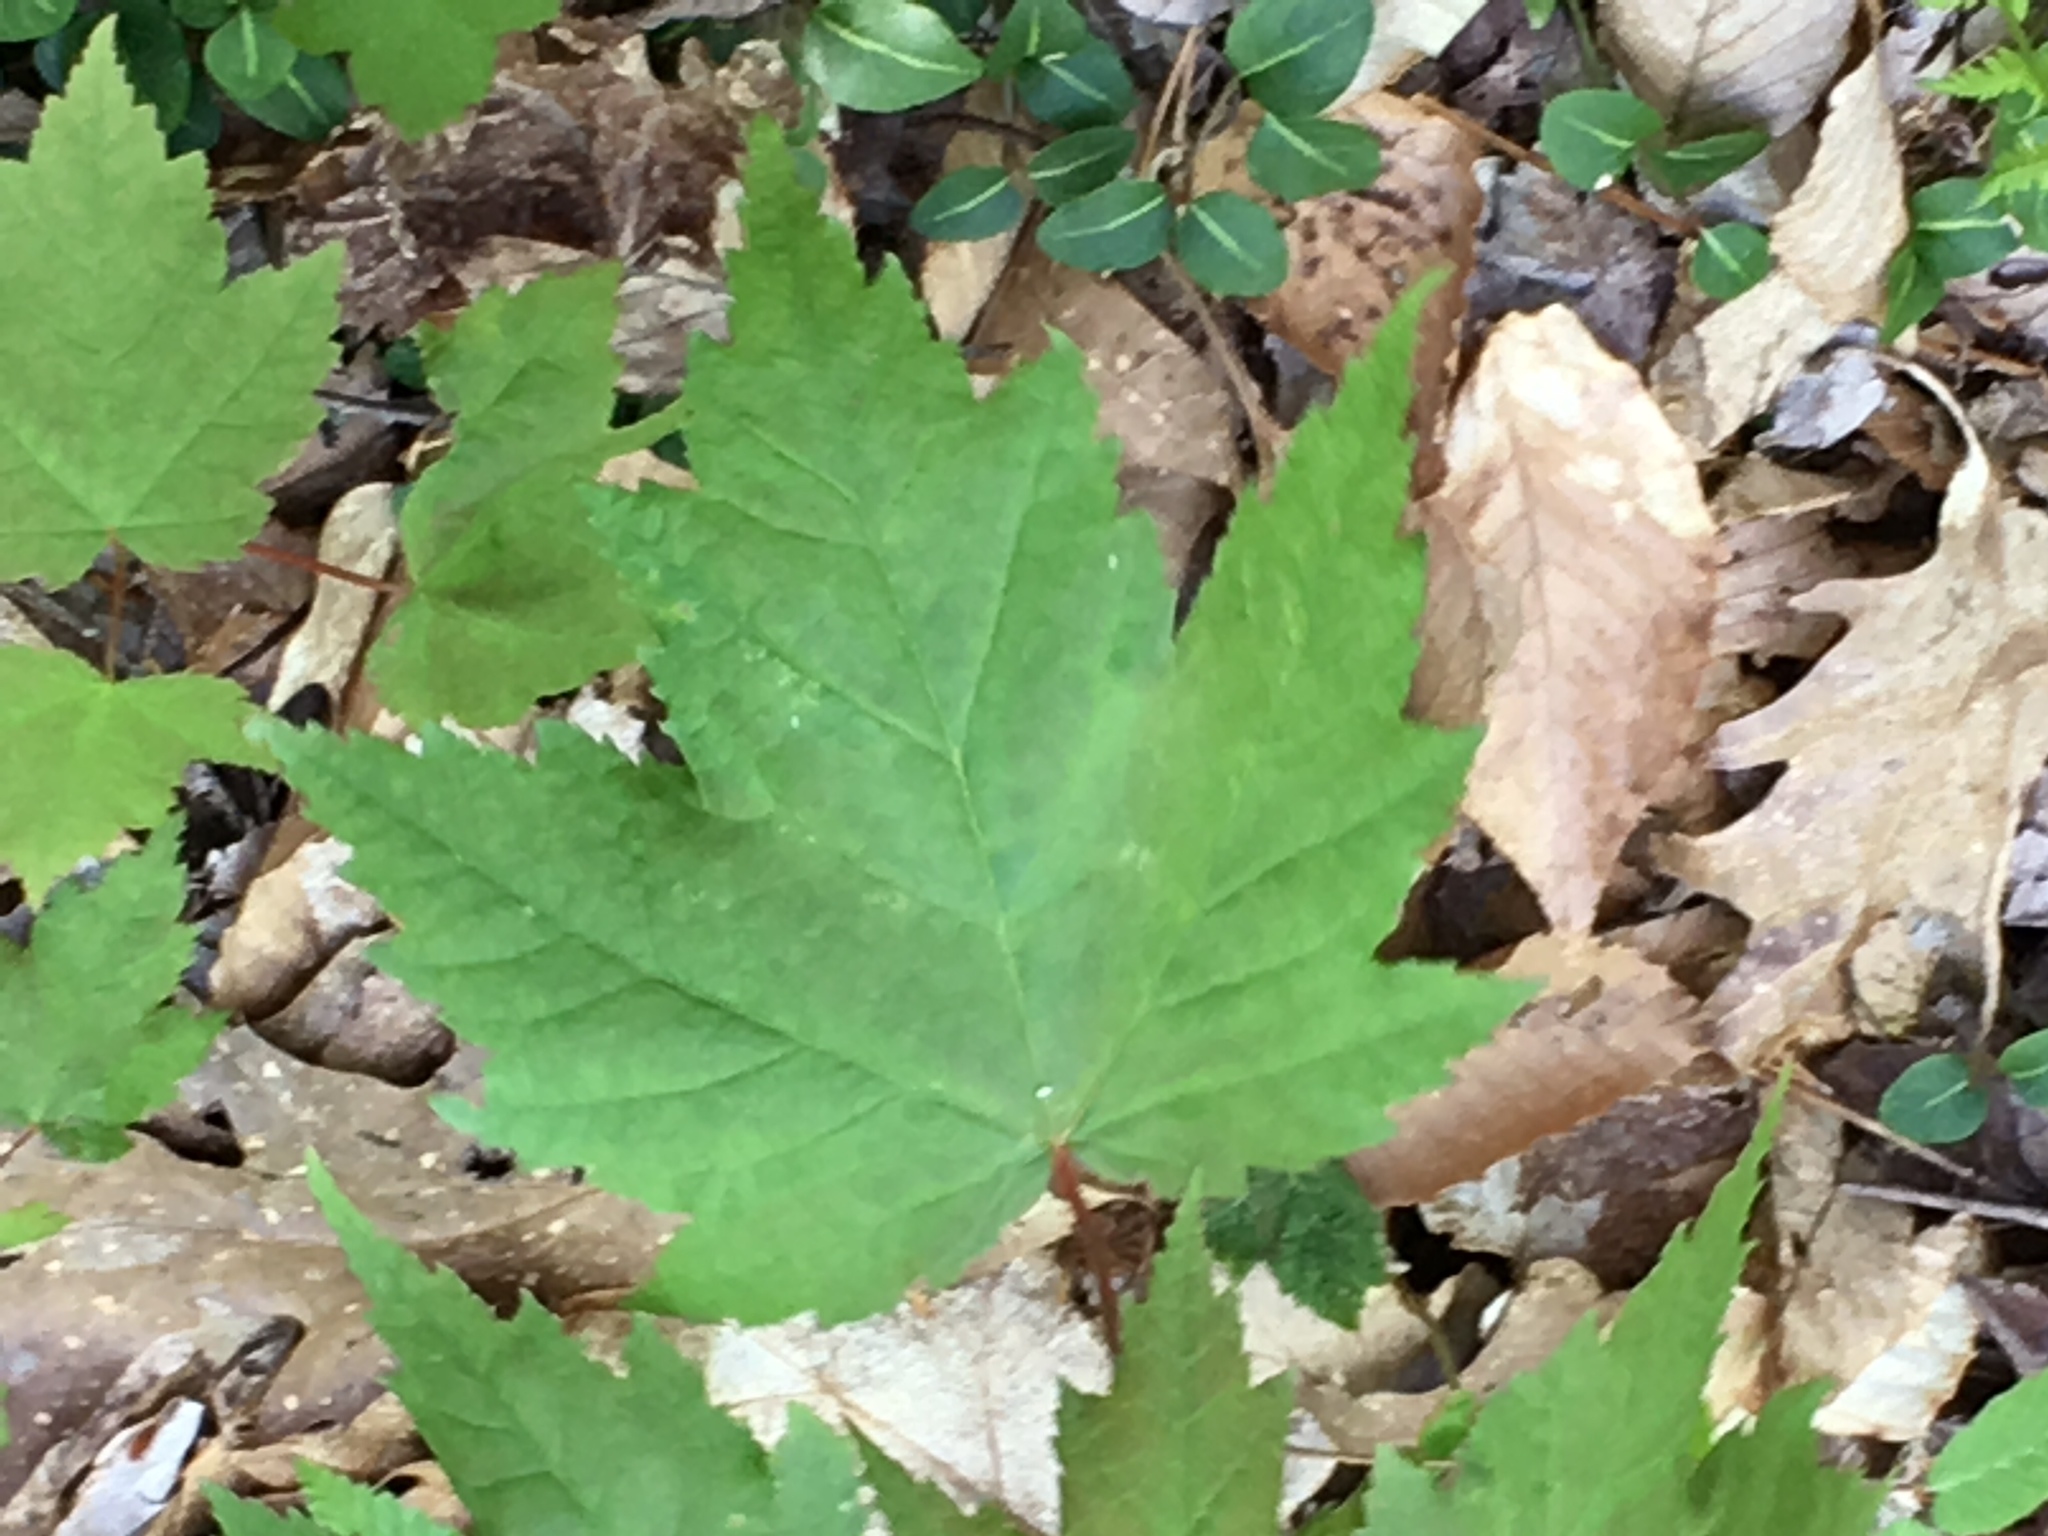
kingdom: Plantae
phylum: Tracheophyta
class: Magnoliopsida
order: Sapindales
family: Sapindaceae
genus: Acer
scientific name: Acer rubrum
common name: Red maple
